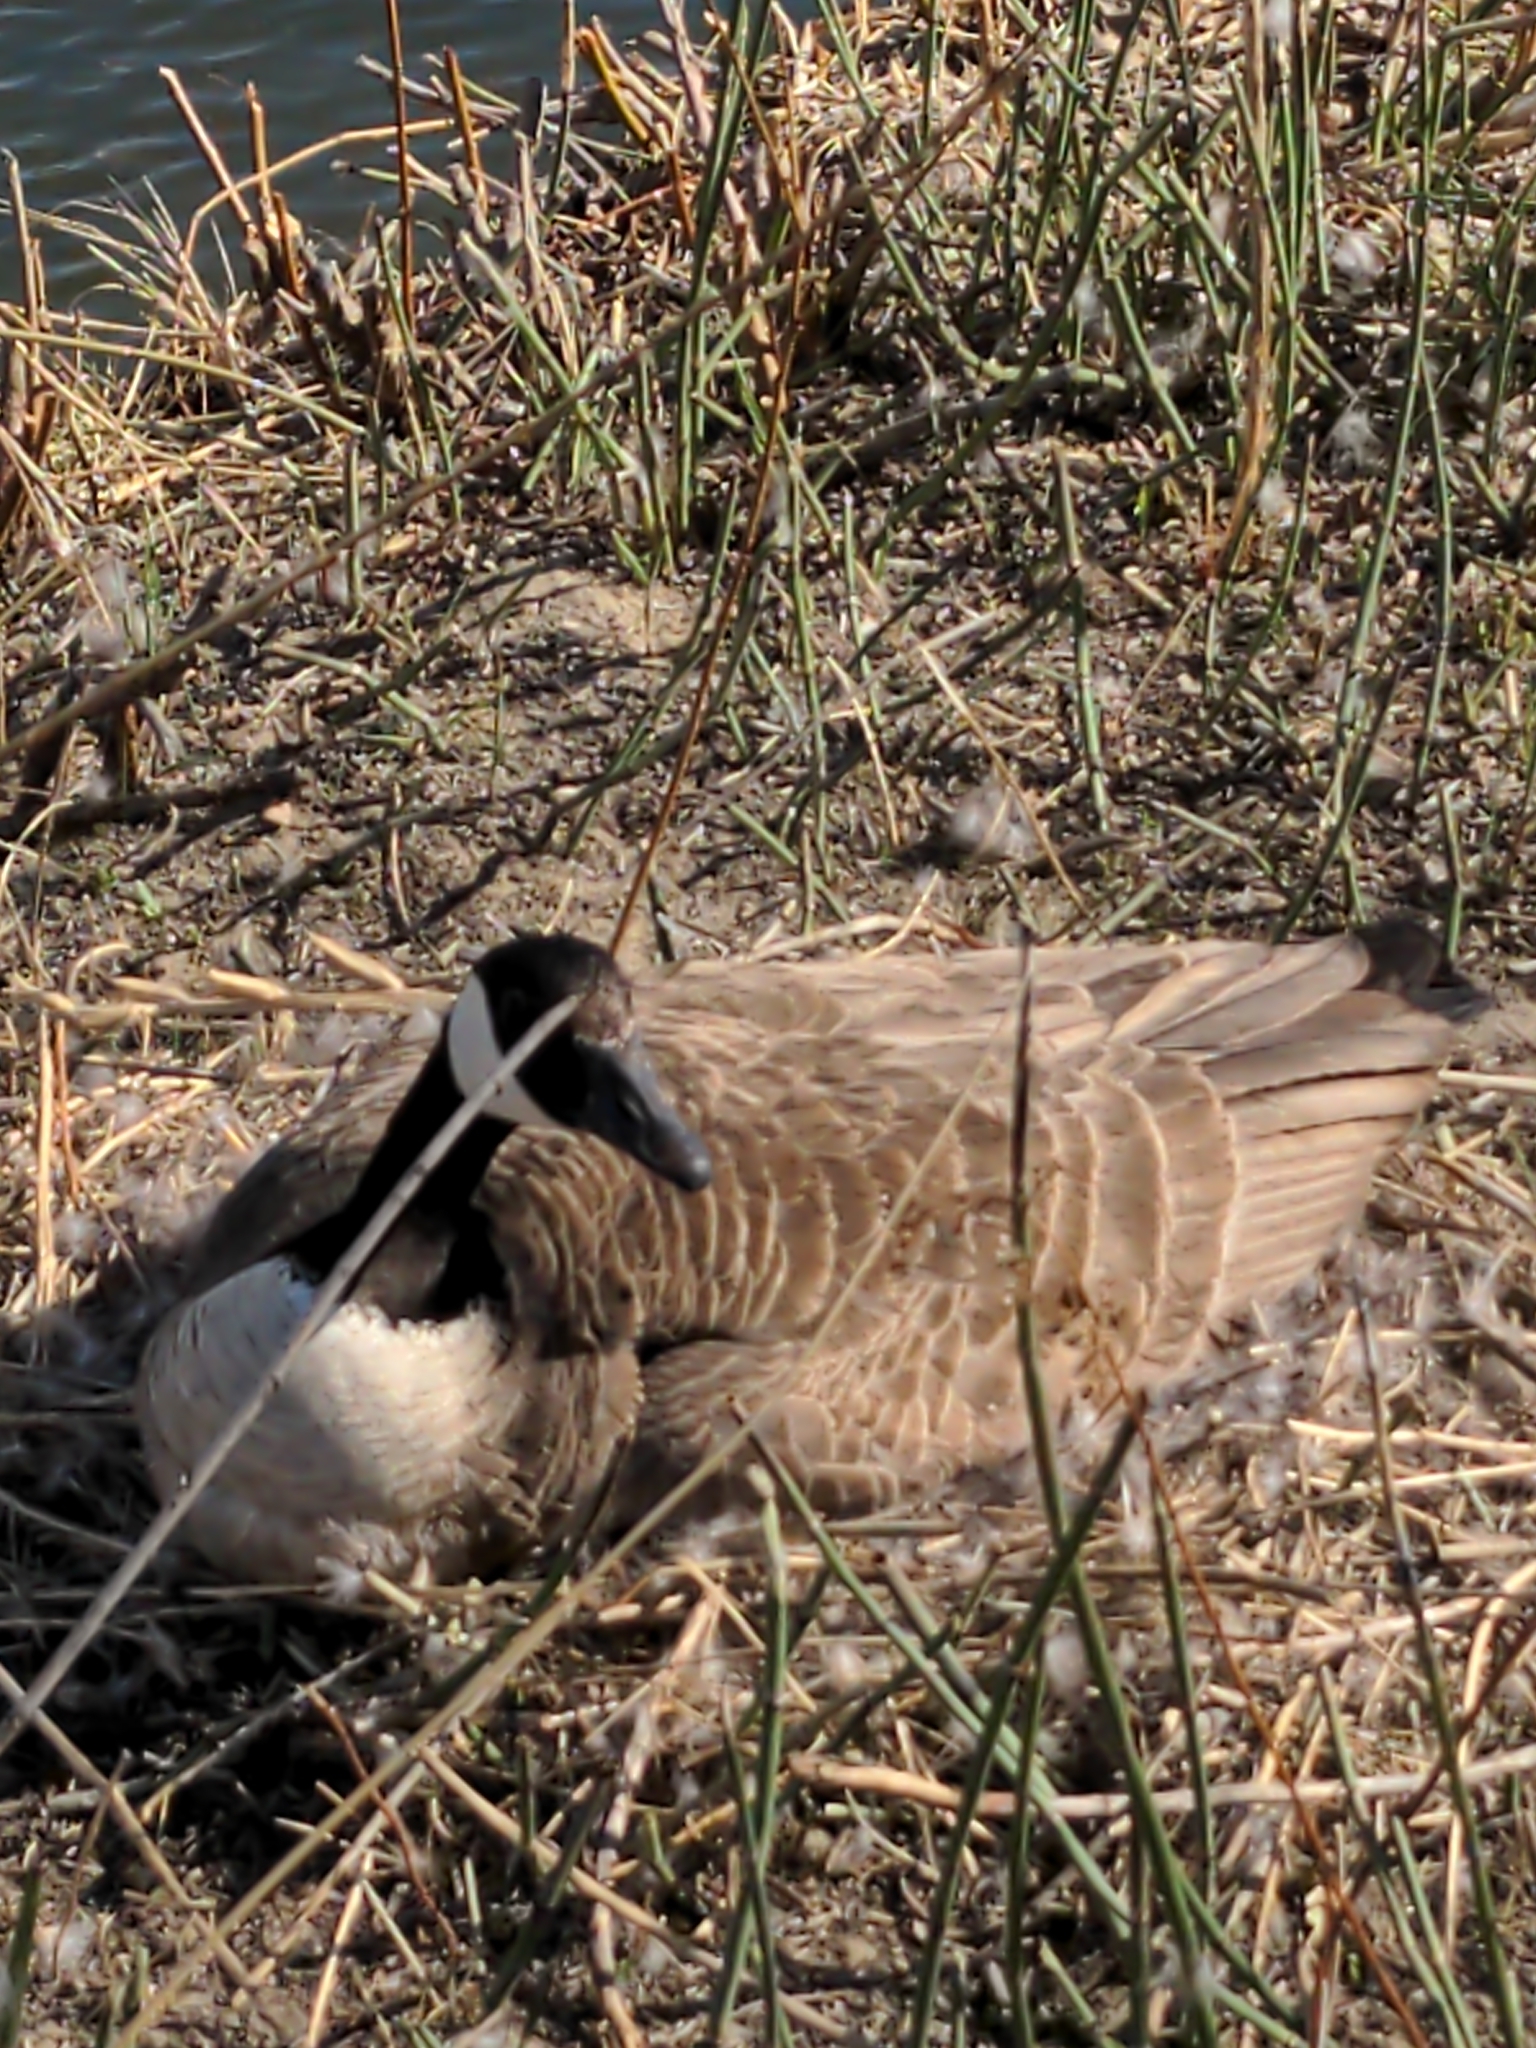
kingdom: Animalia
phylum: Chordata
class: Aves
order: Anseriformes
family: Anatidae
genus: Branta
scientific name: Branta canadensis
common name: Canada goose
